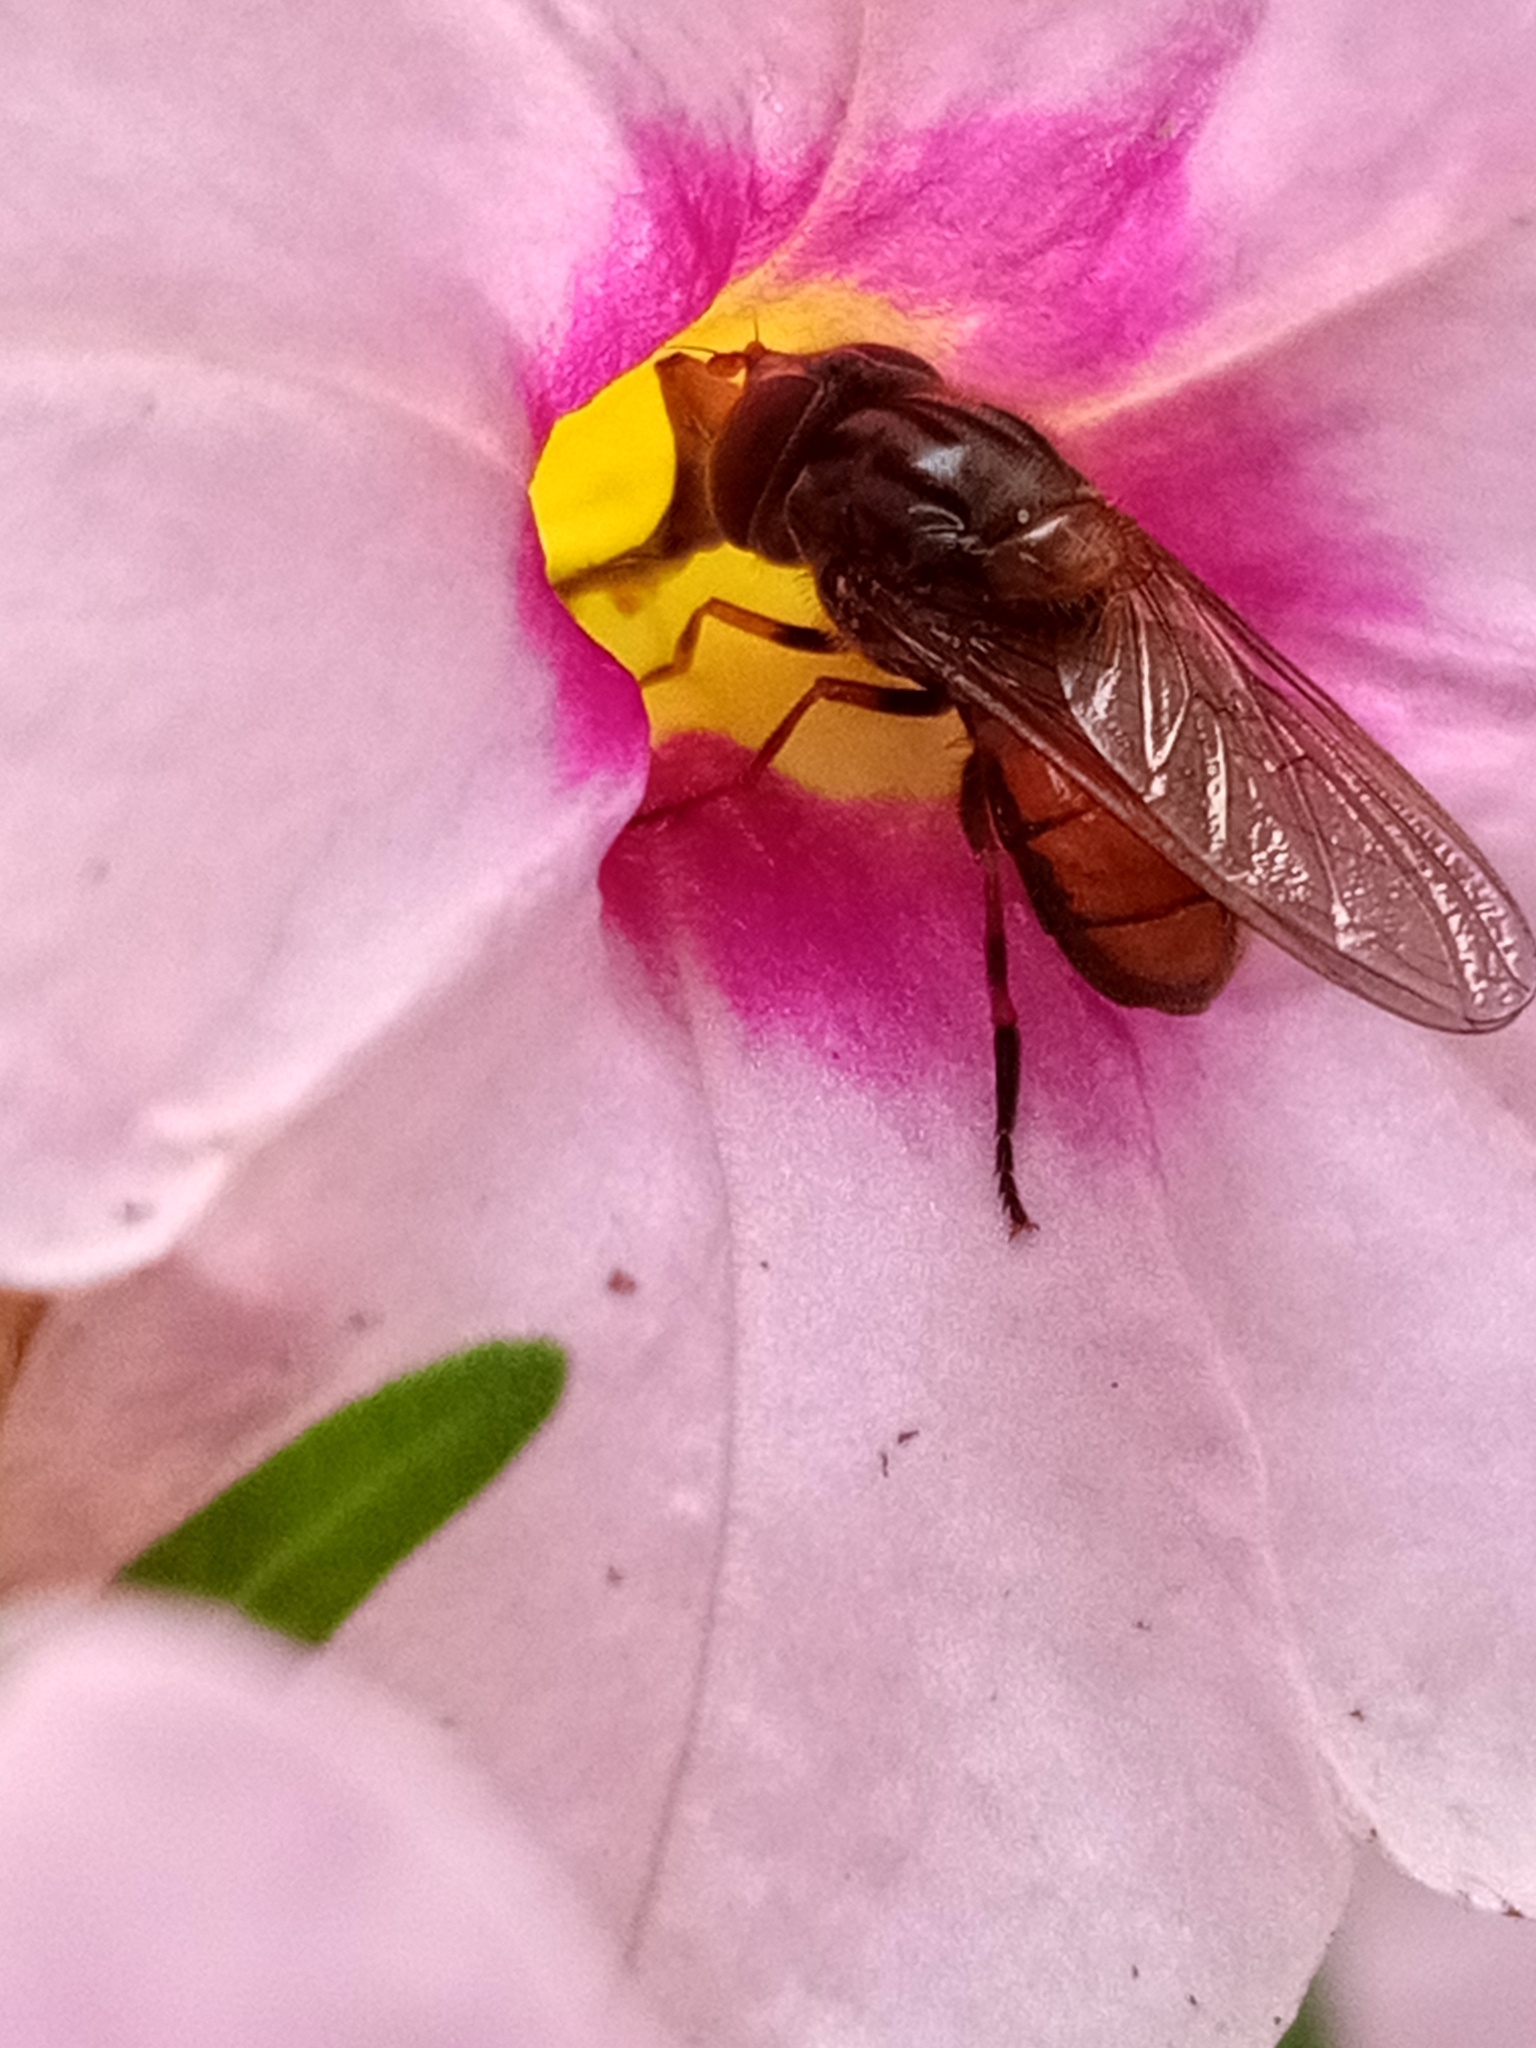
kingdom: Animalia
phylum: Arthropoda
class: Insecta
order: Diptera
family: Syrphidae
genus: Rhingia
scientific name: Rhingia campestris
